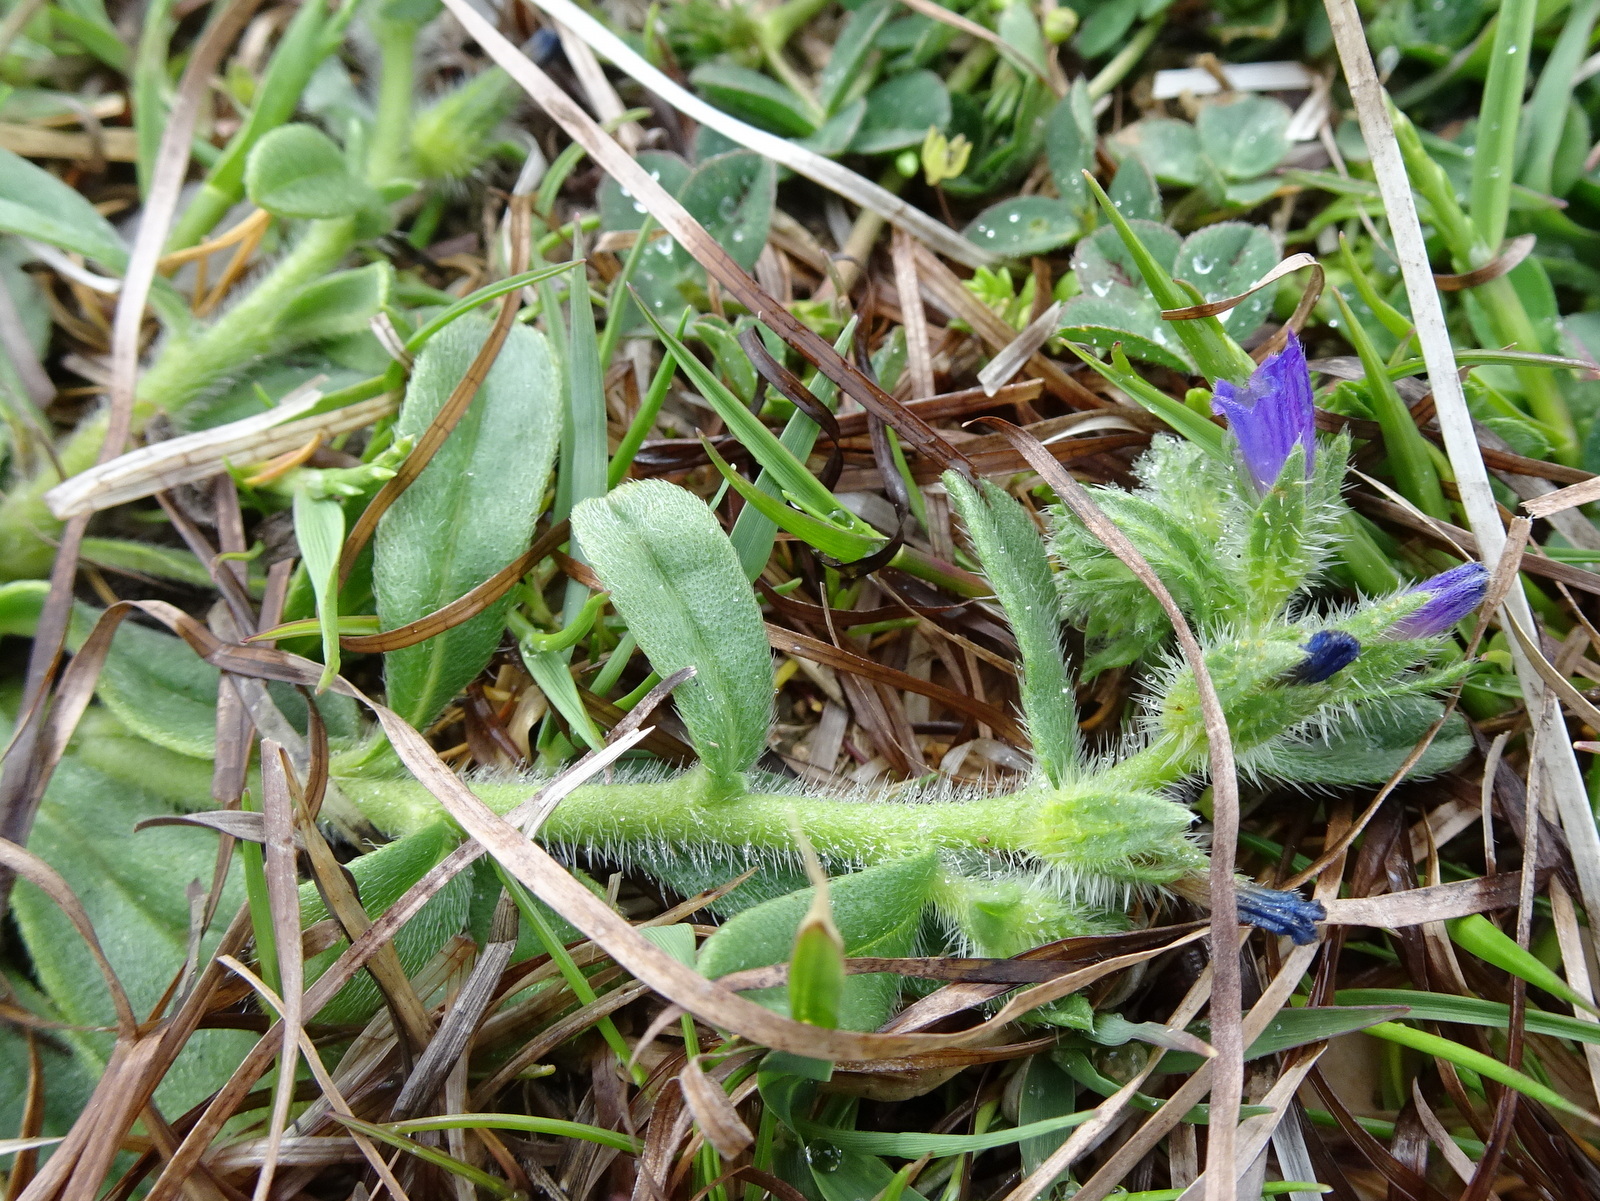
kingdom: Plantae
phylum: Tracheophyta
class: Magnoliopsida
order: Boraginales
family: Boraginaceae
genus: Echium
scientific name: Echium arenarium
